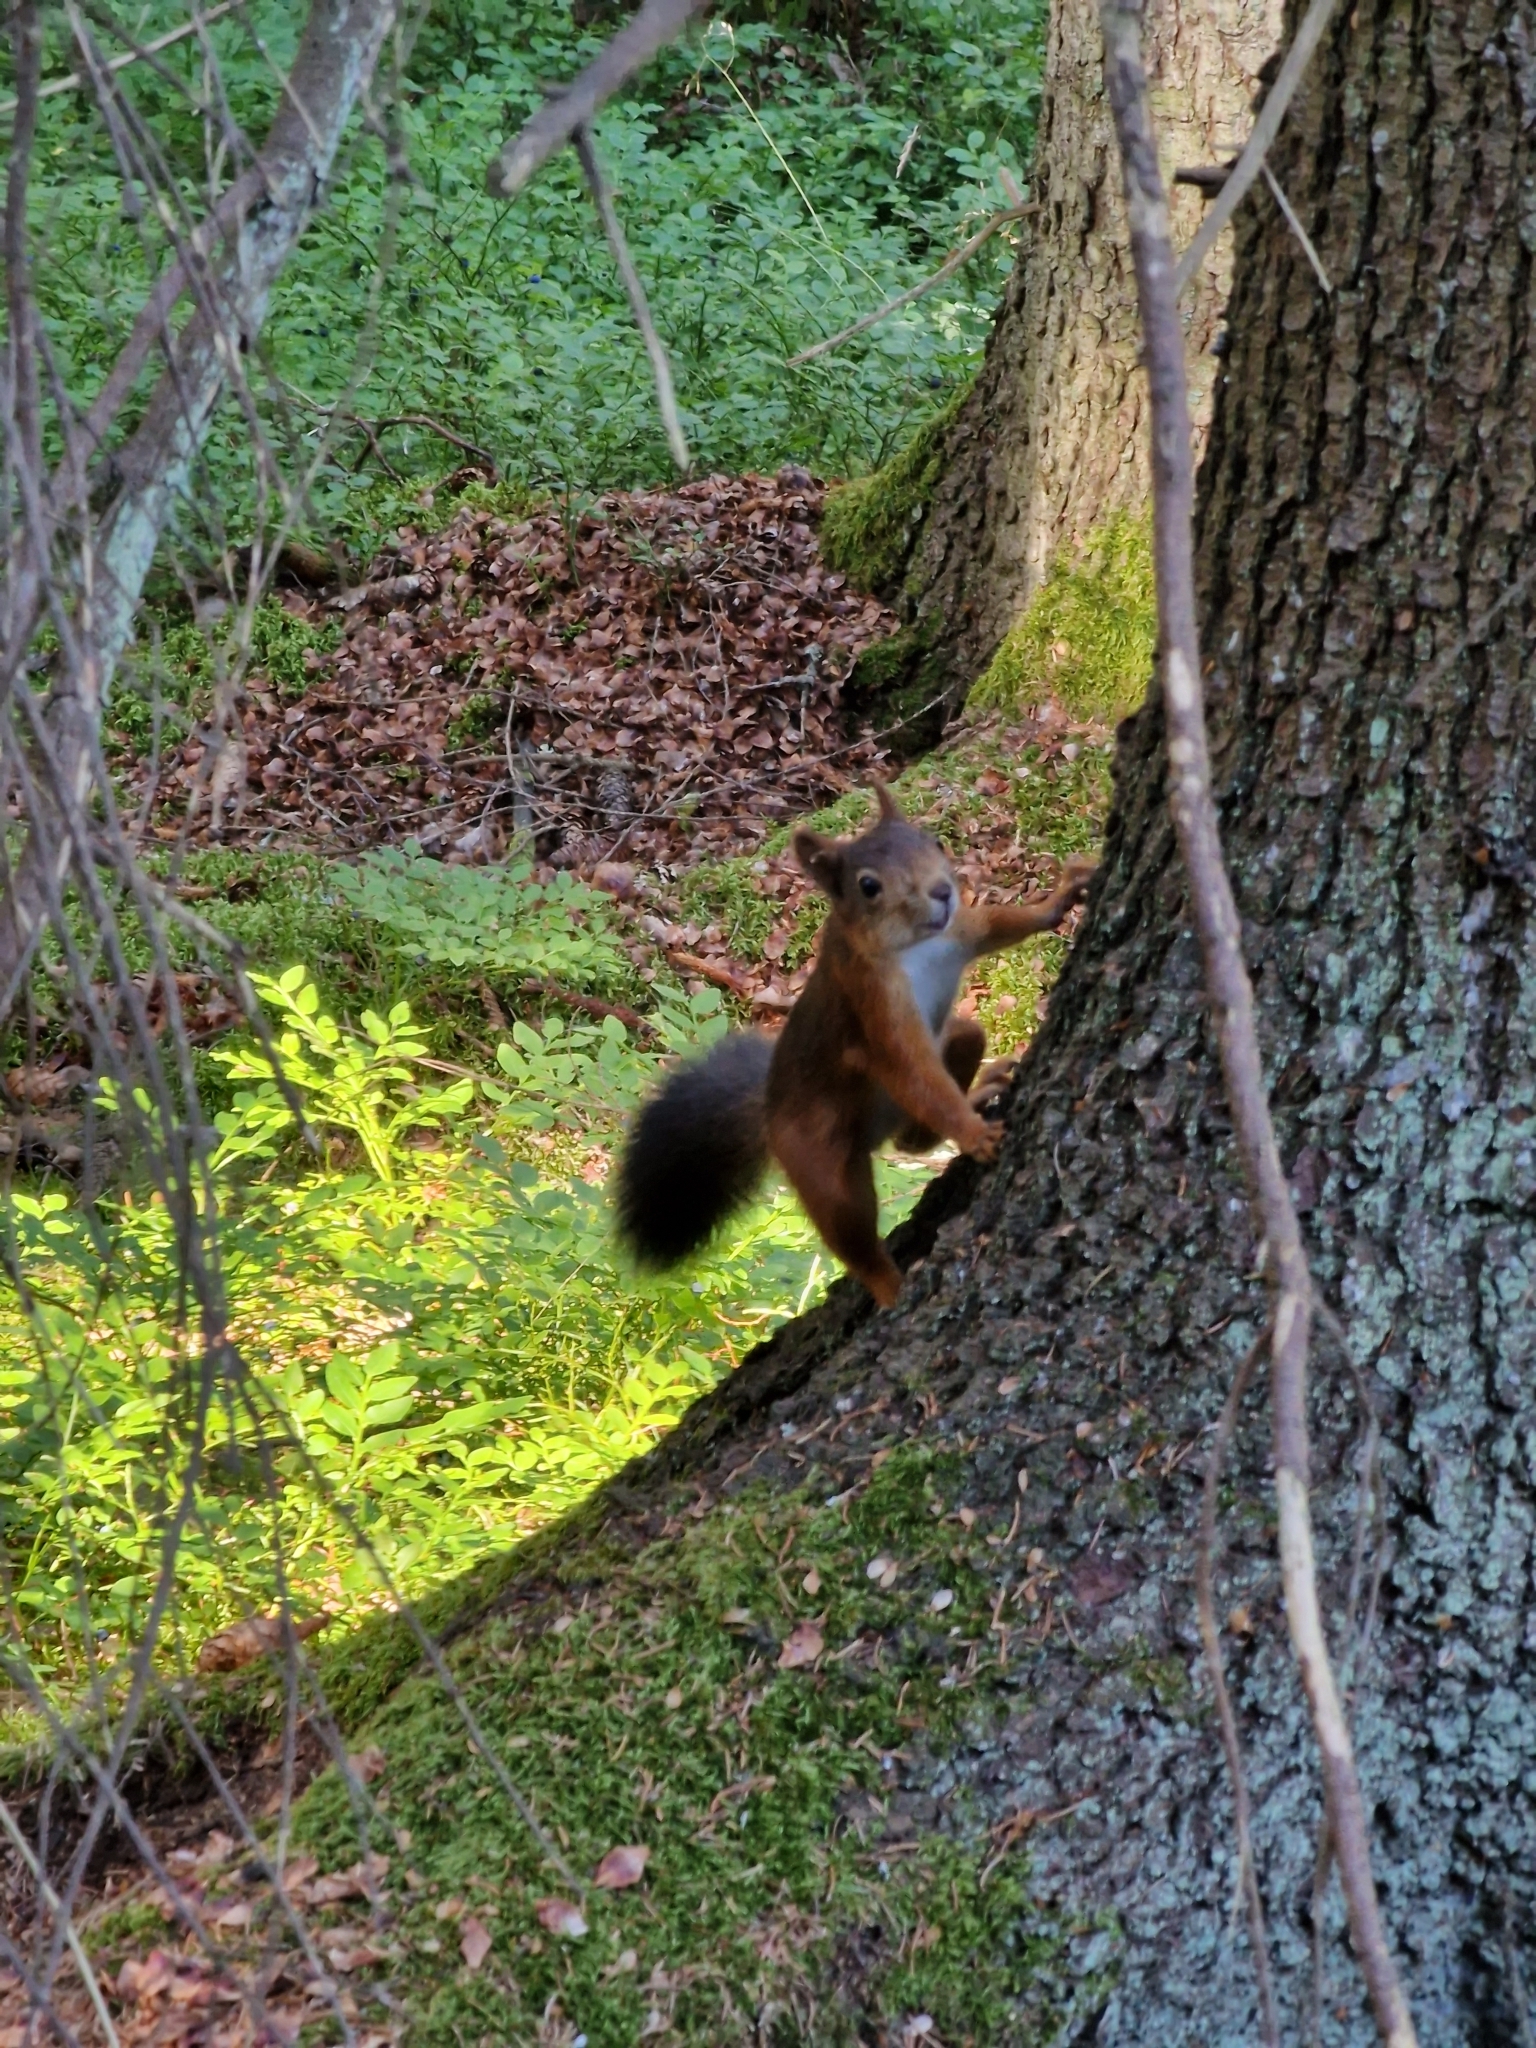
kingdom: Animalia
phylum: Chordata
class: Mammalia
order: Rodentia
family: Sciuridae
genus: Sciurus
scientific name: Sciurus vulgaris
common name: Eurasian red squirrel
